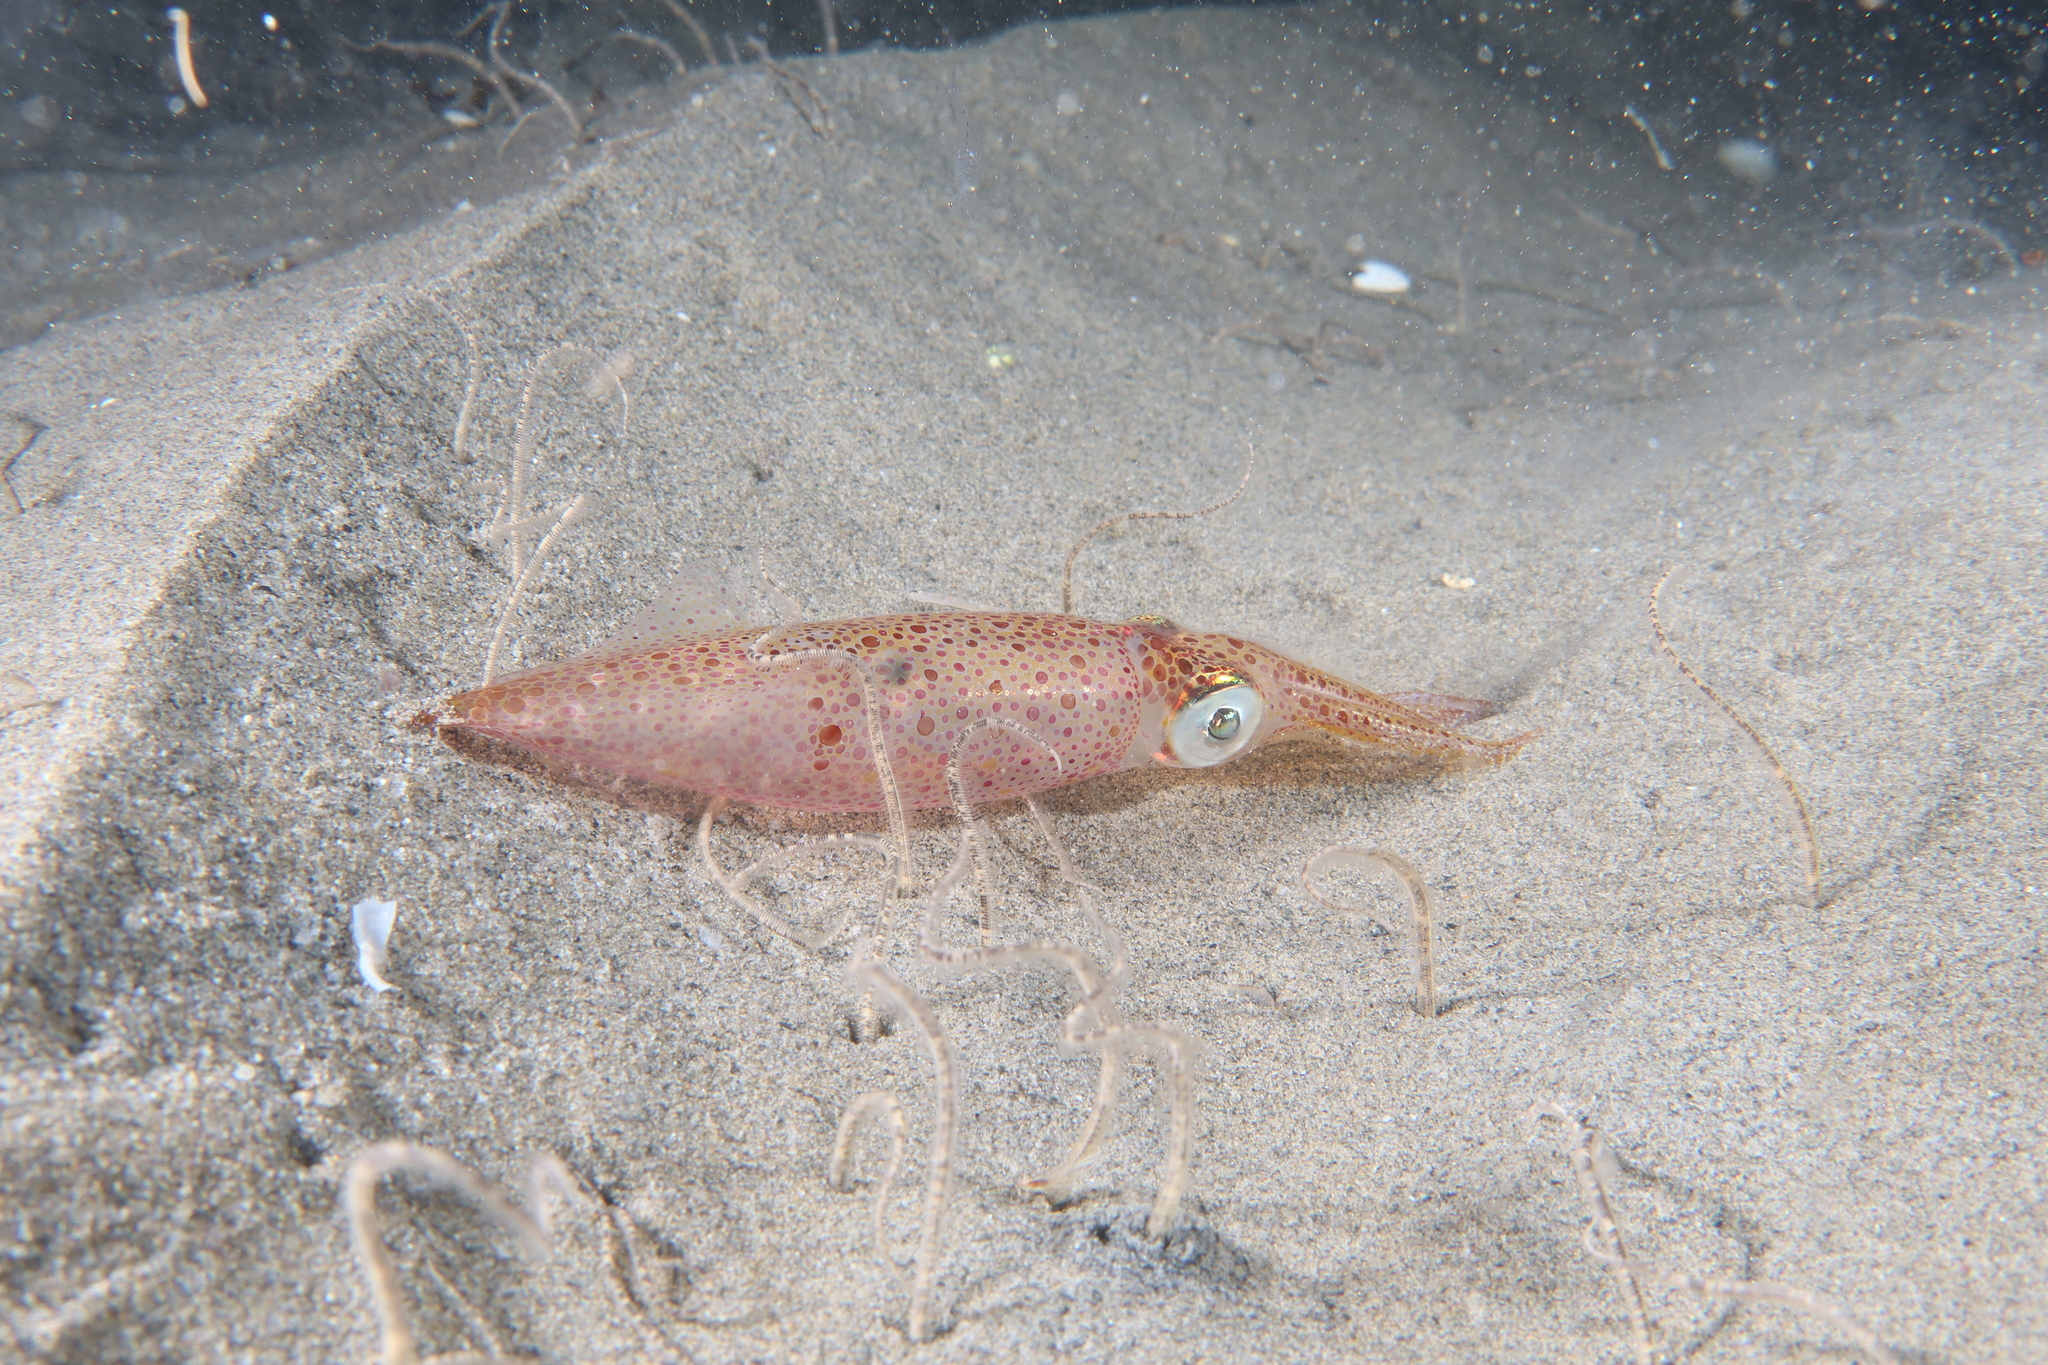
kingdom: Animalia
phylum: Mollusca
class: Cephalopoda
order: Myopsida
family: Loliginidae
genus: Alloteuthis
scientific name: Alloteuthis media
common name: Little squid
